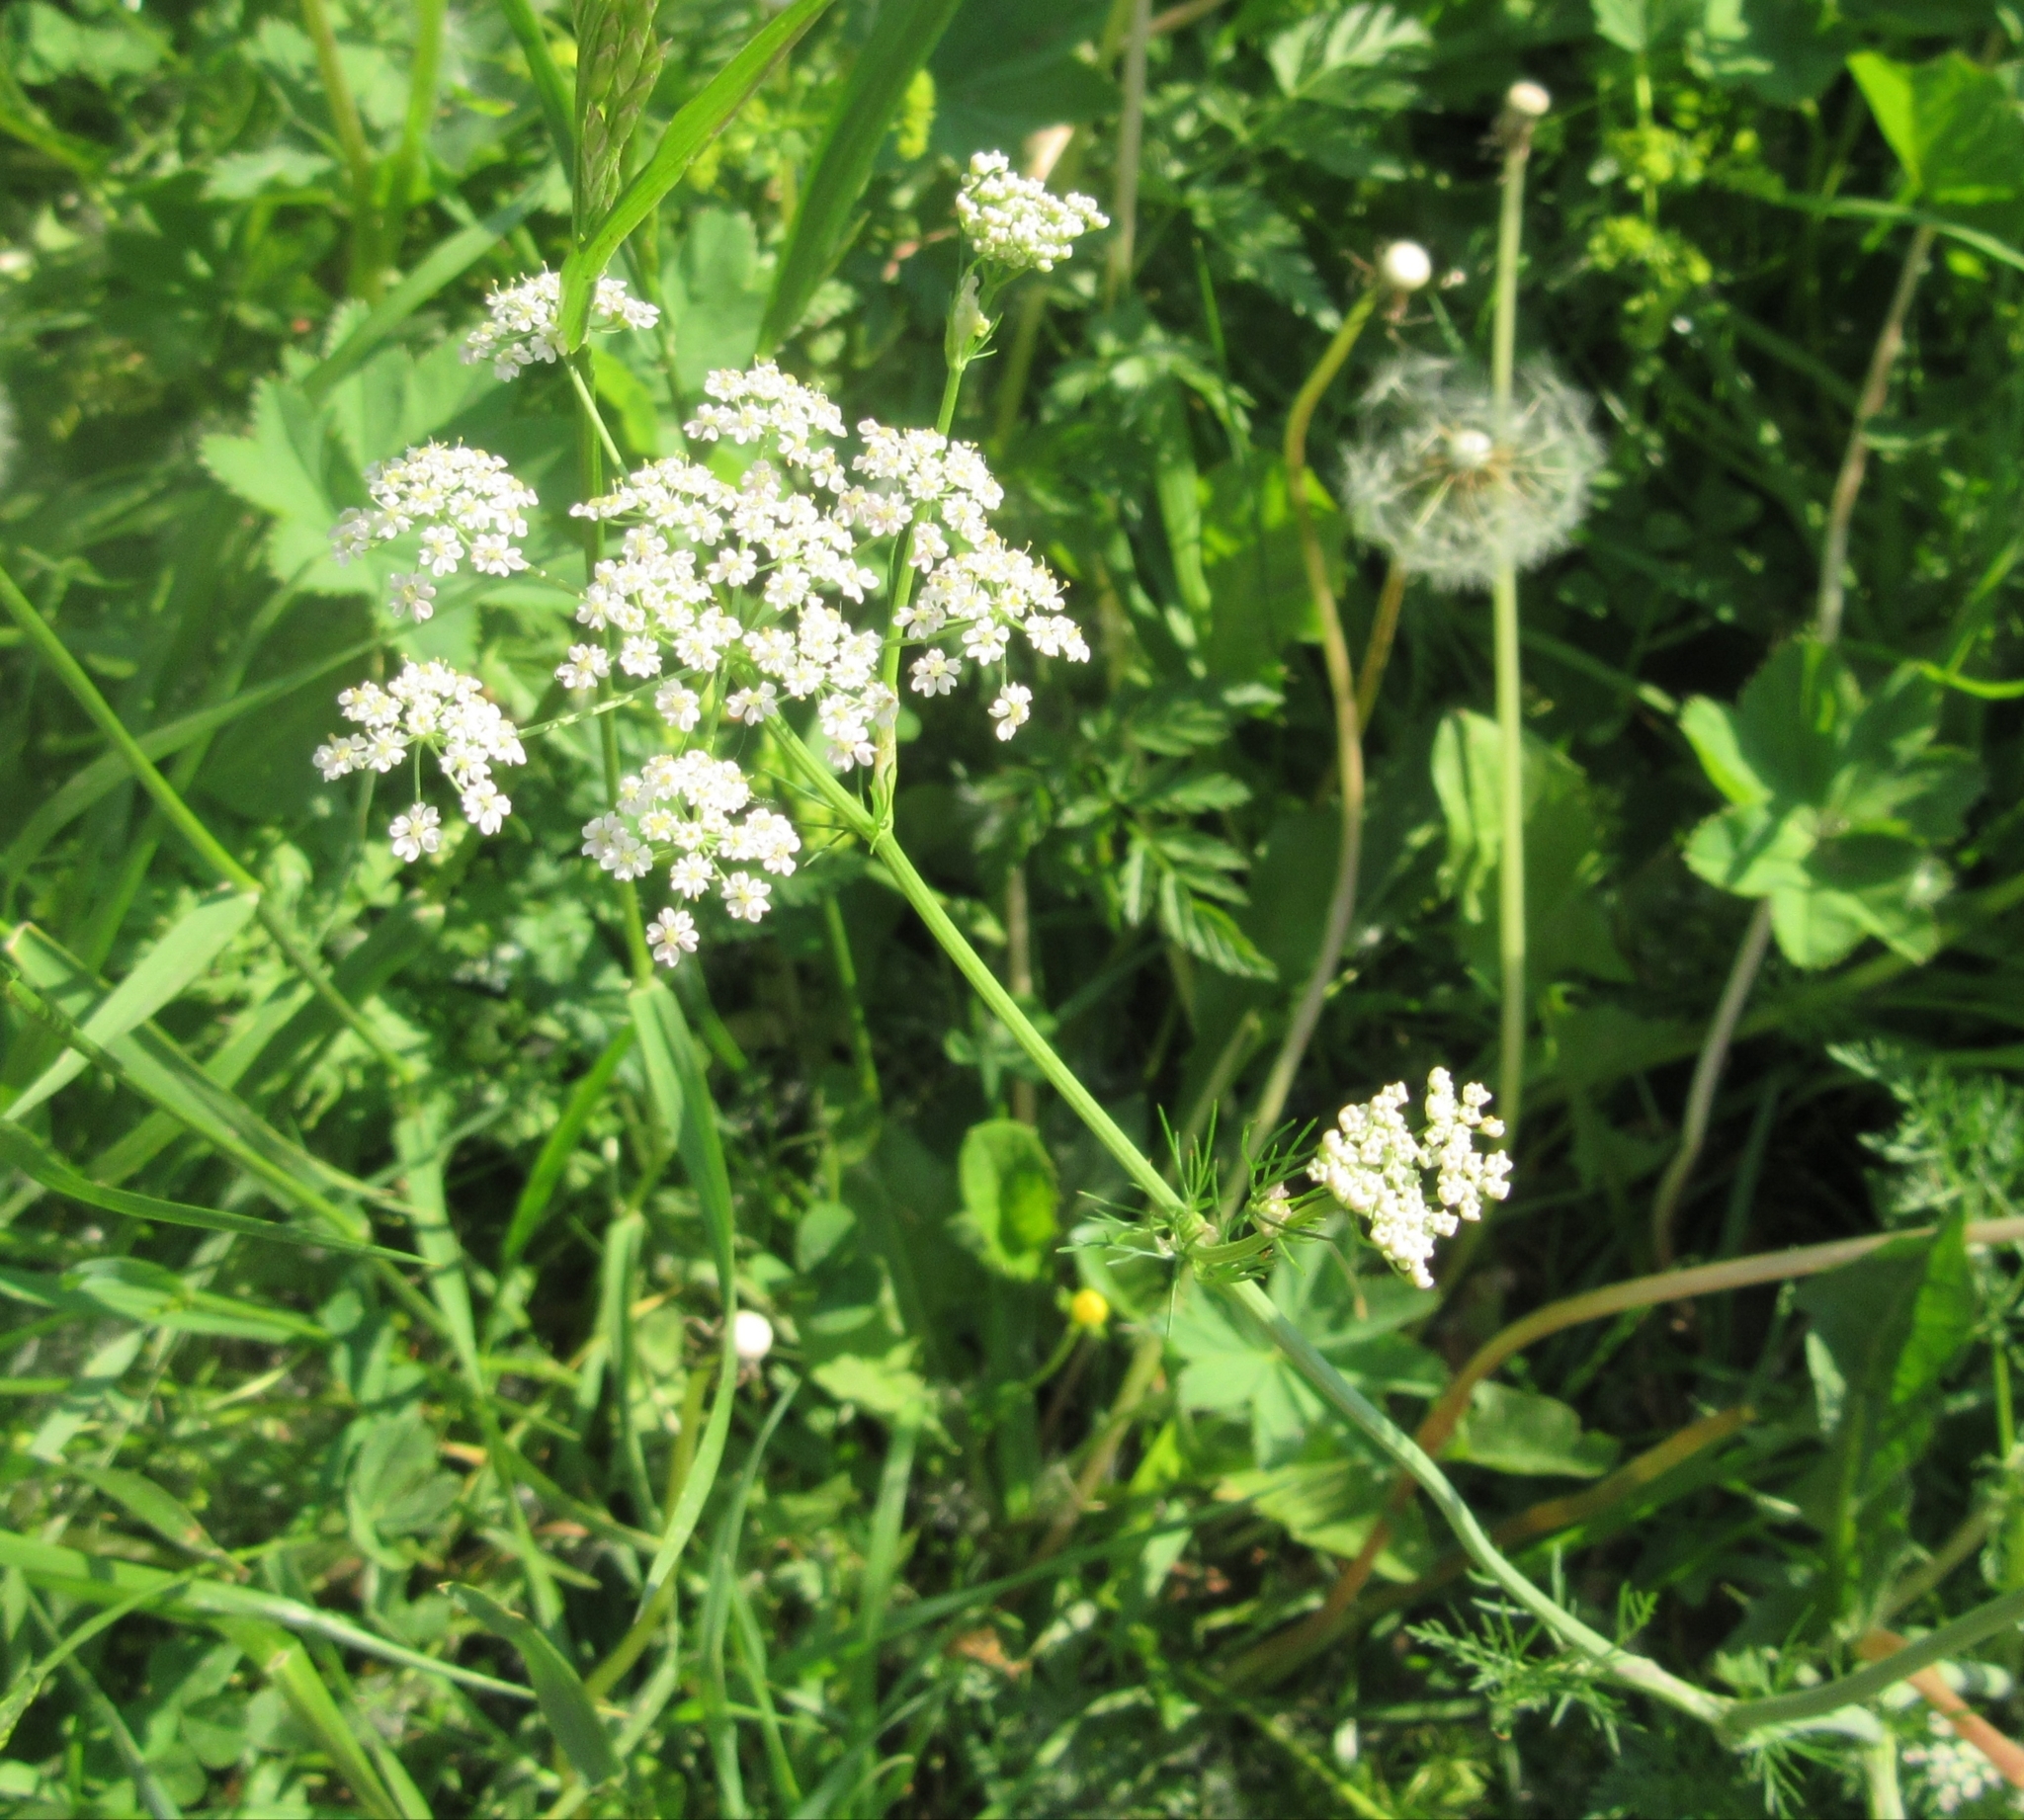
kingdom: Plantae
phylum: Tracheophyta
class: Magnoliopsida
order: Apiales
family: Apiaceae
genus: Carum
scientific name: Carum carvi
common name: Caraway
